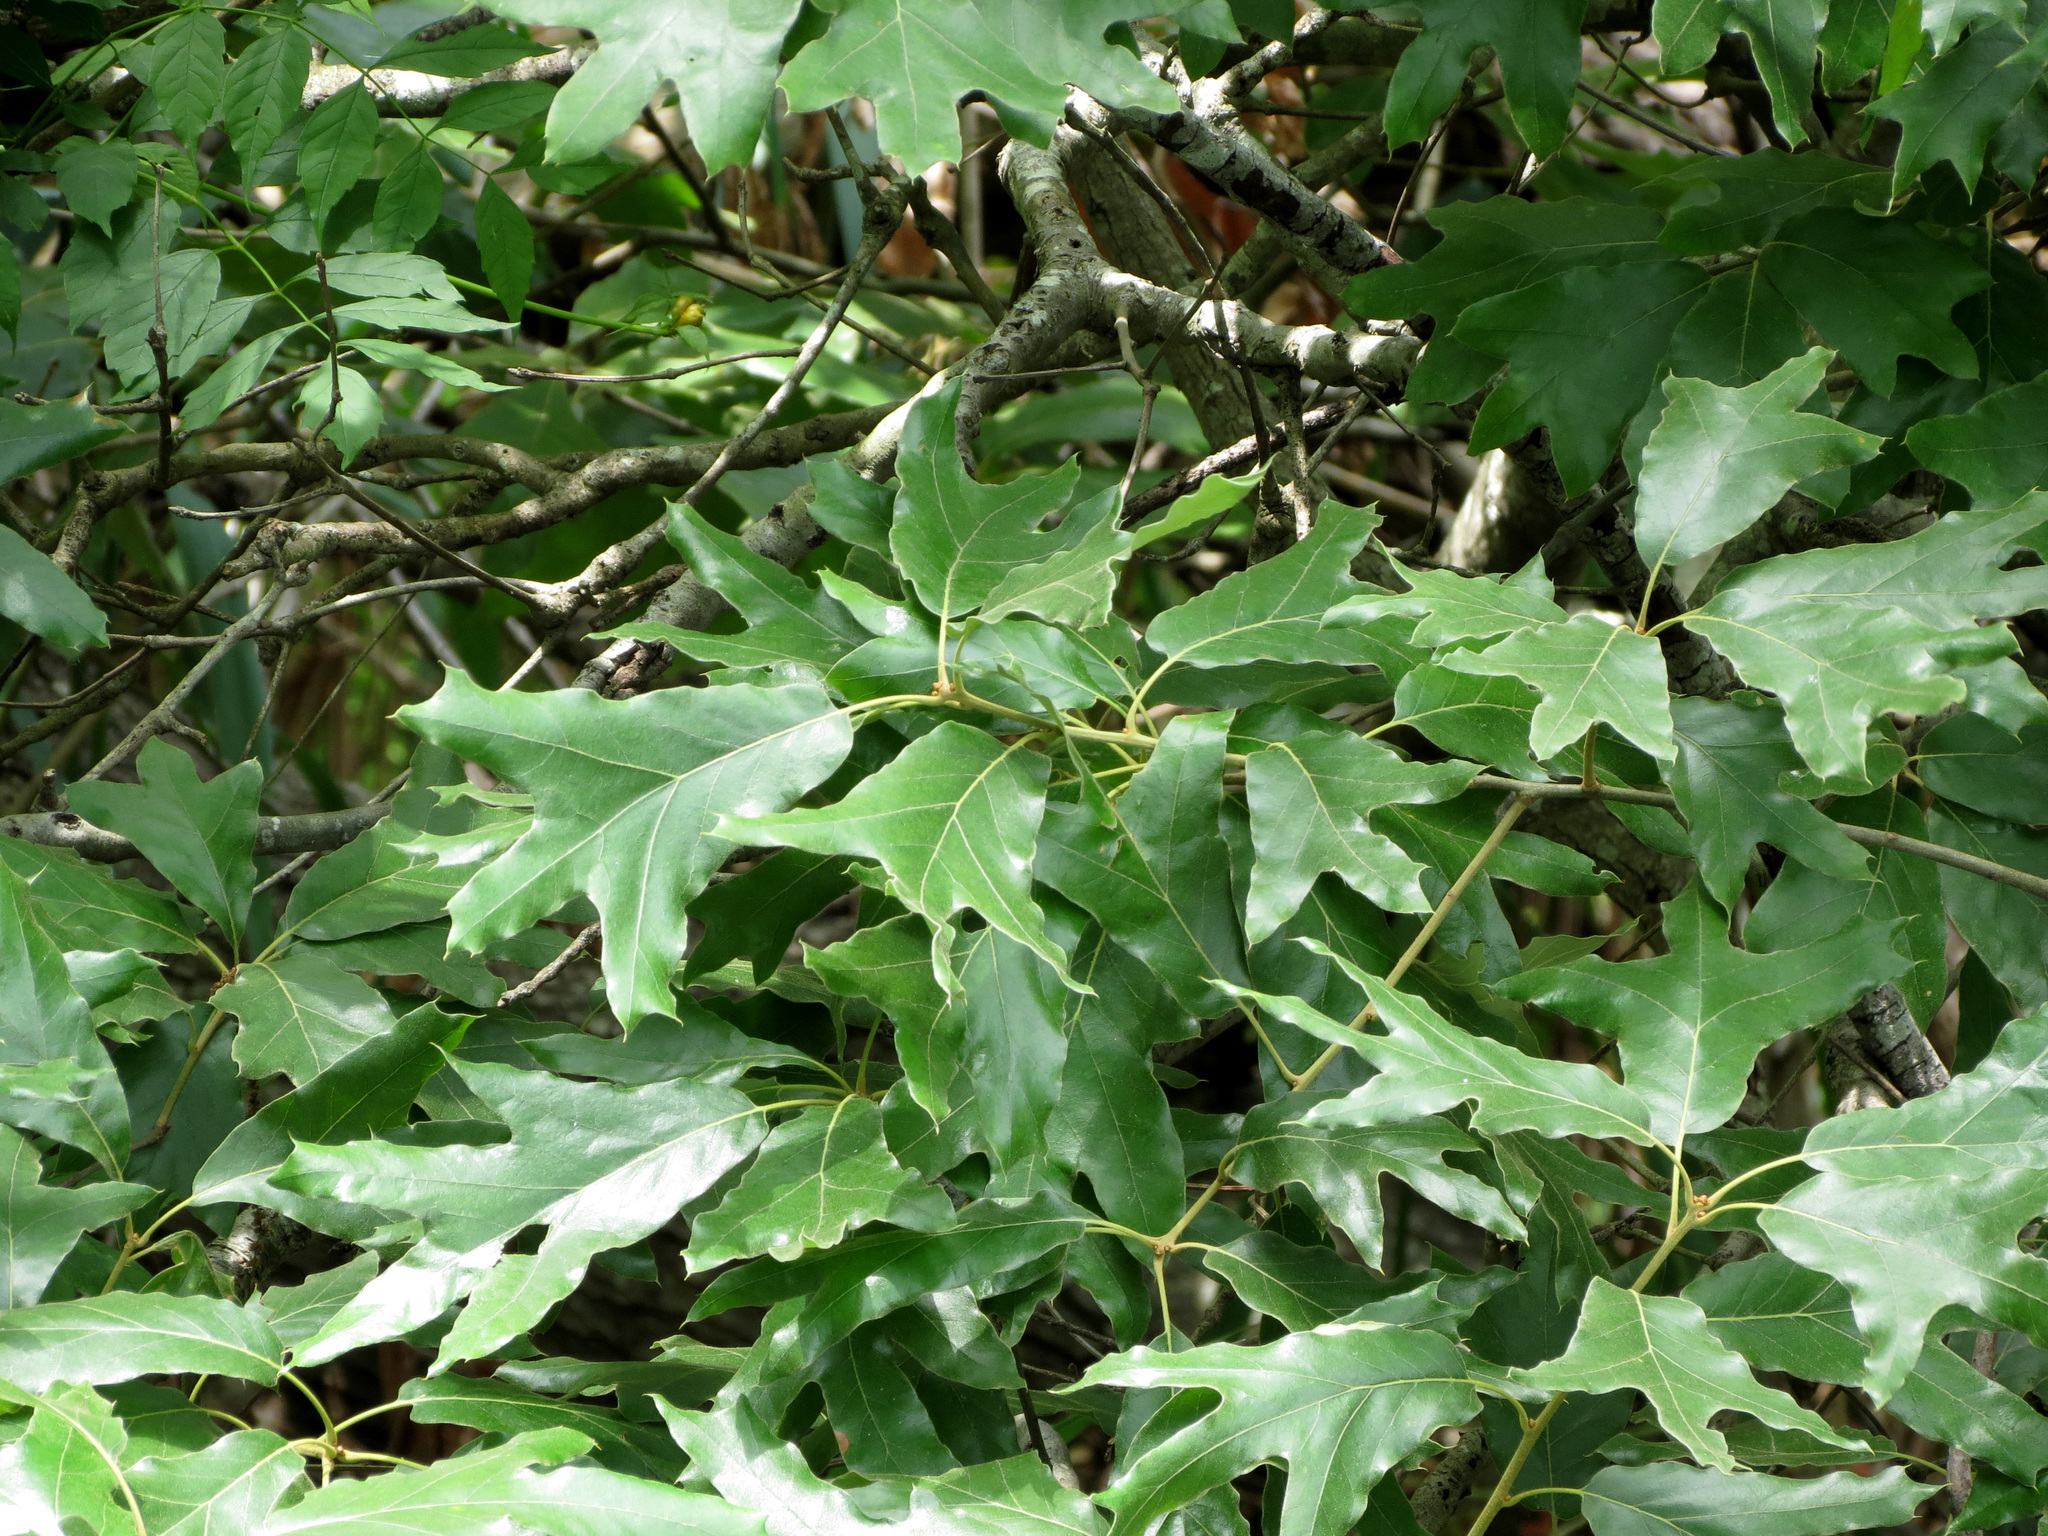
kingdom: Plantae
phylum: Tracheophyta
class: Magnoliopsida
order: Fagales
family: Fagaceae
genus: Quercus
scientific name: Quercus falcata
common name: Southern red oak
